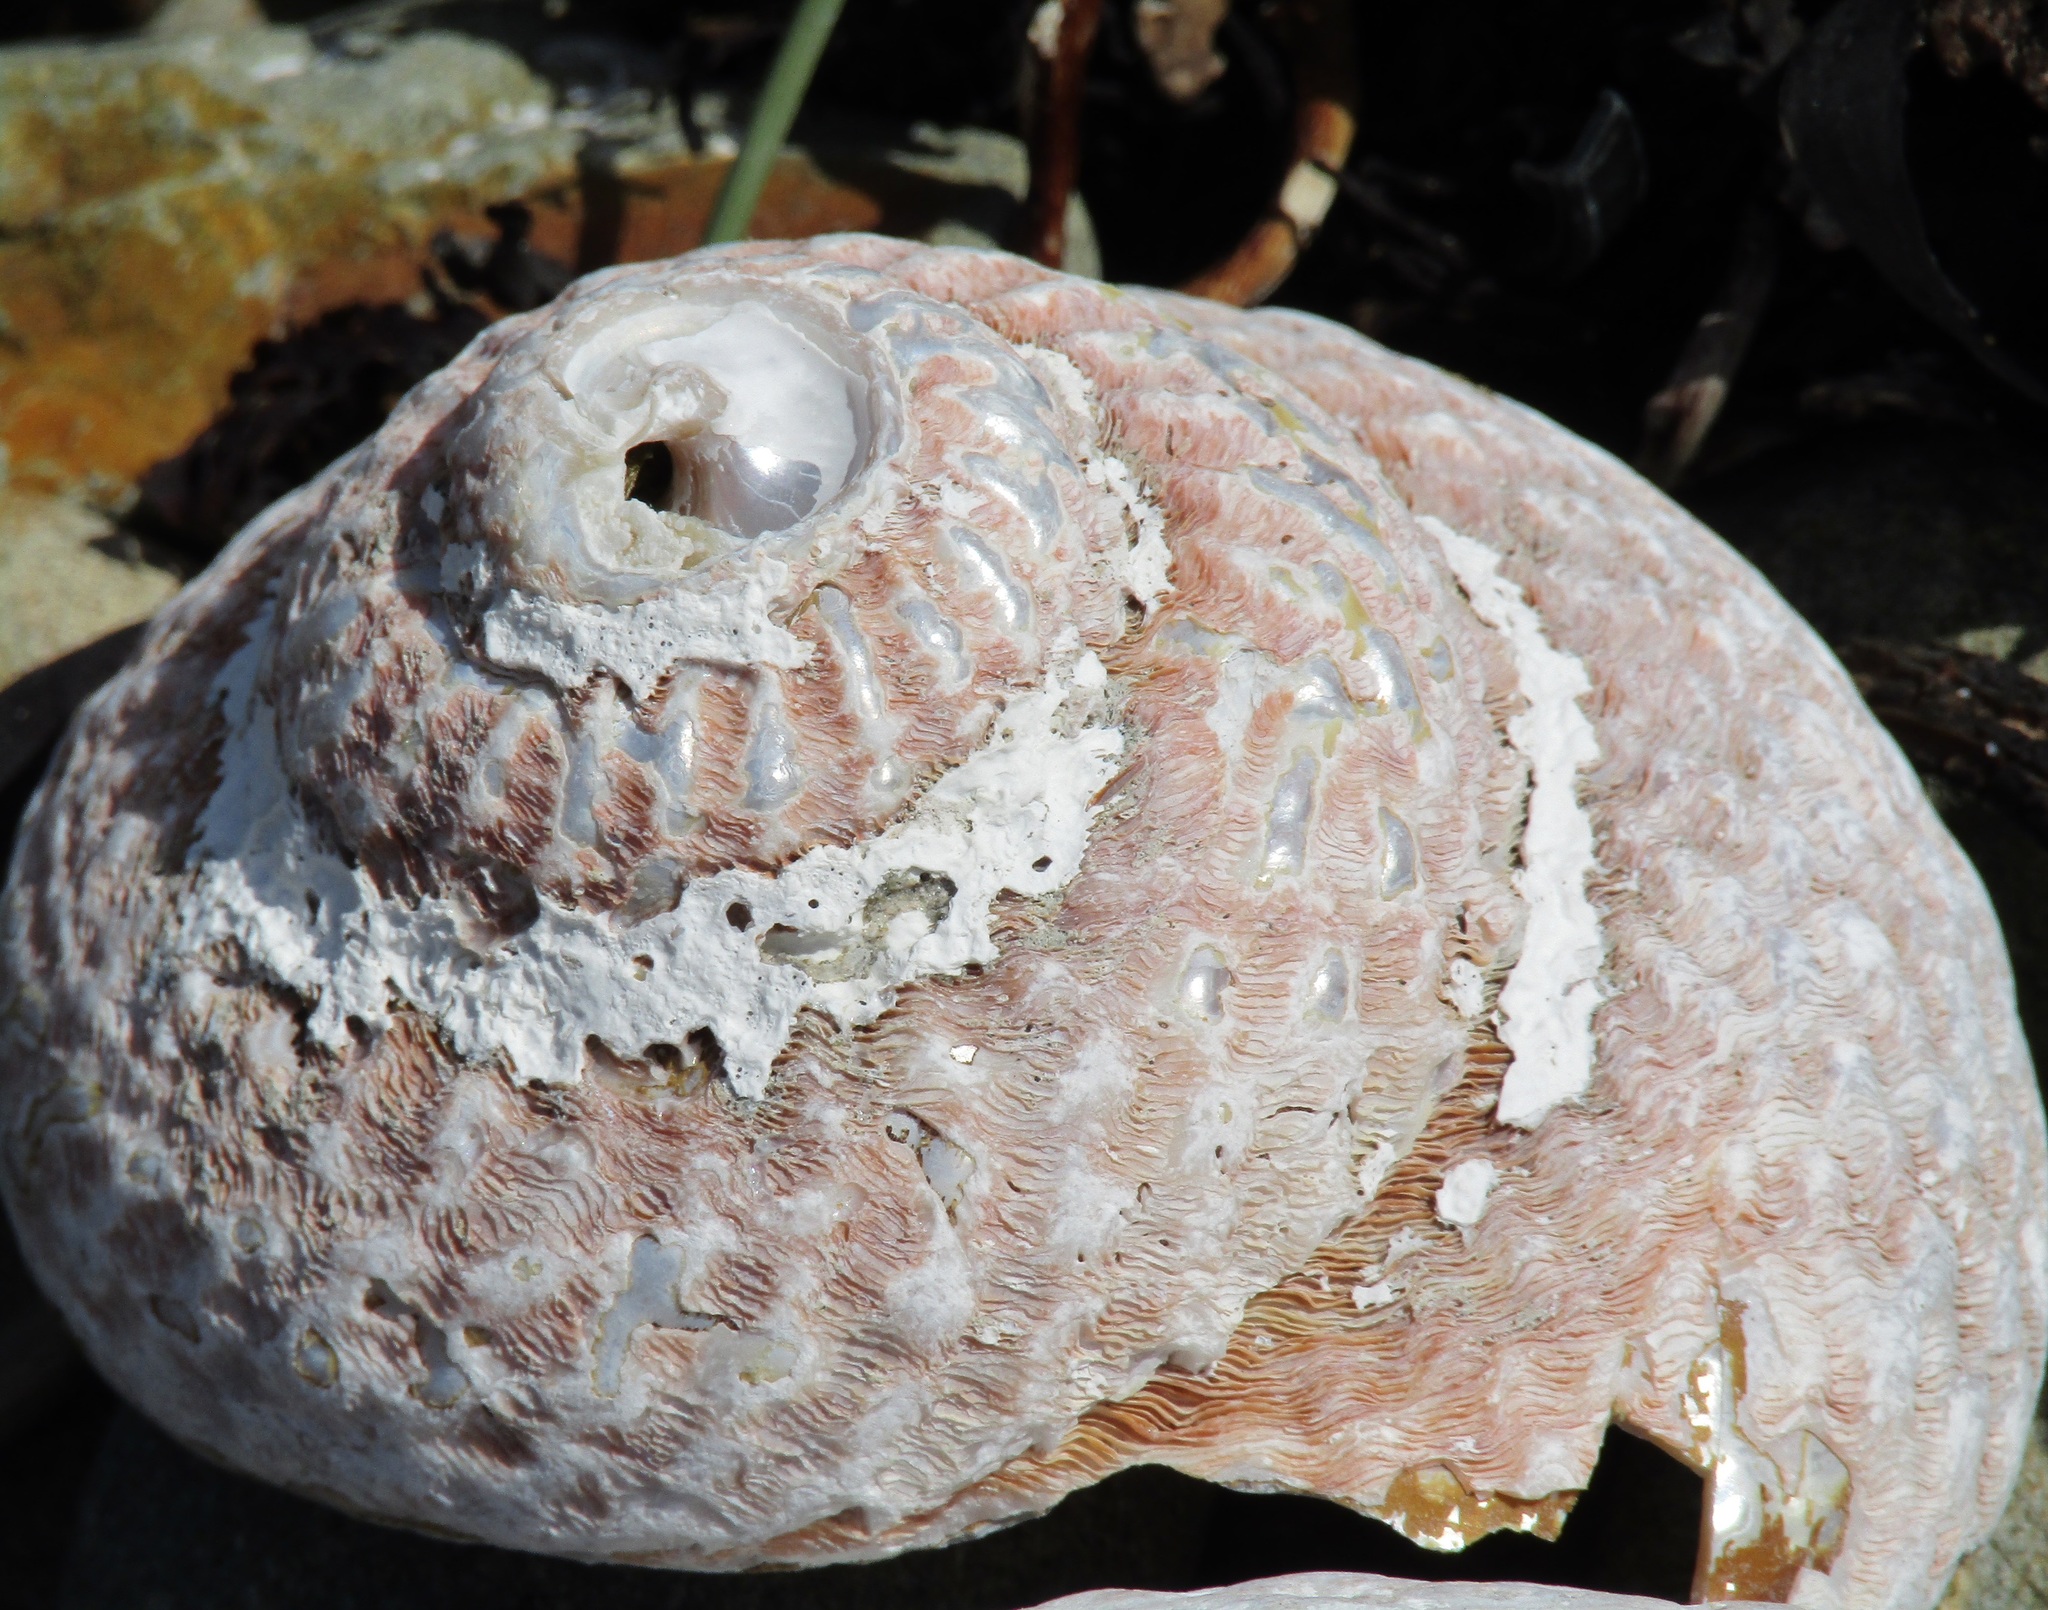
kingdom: Animalia
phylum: Mollusca
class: Gastropoda
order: Trochida
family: Turbinidae
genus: Cookia
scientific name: Cookia sulcata
